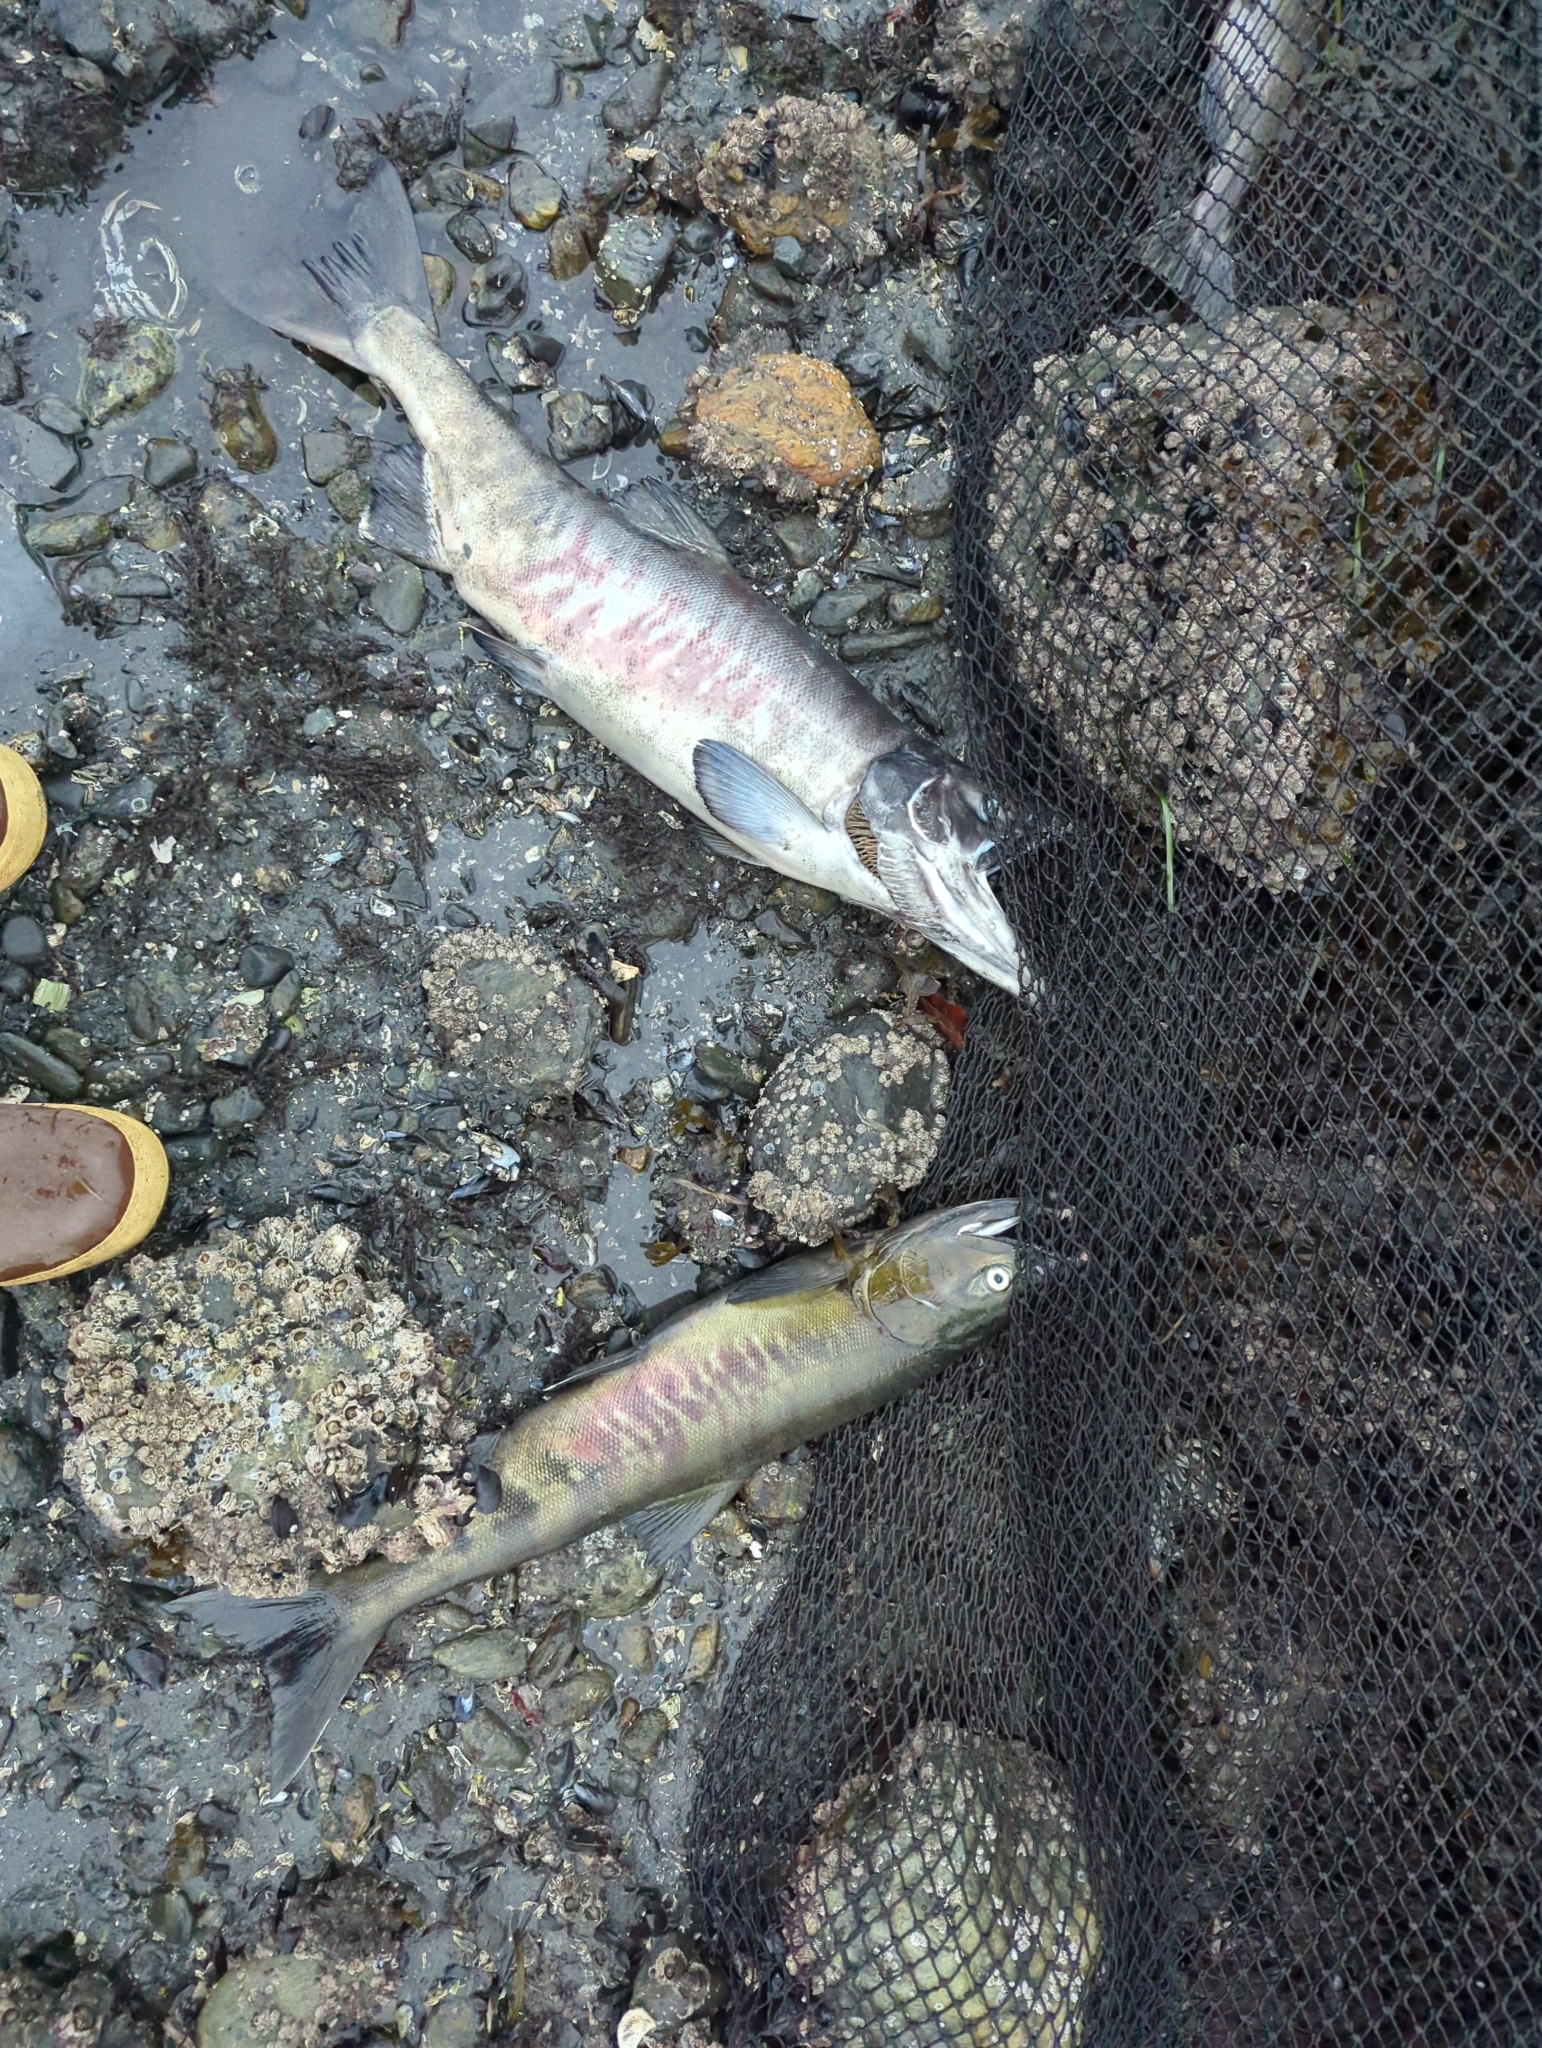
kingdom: Animalia
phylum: Chordata
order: Salmoniformes
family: Salmonidae
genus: Oncorhynchus
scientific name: Oncorhynchus keta
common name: Chum salmon
